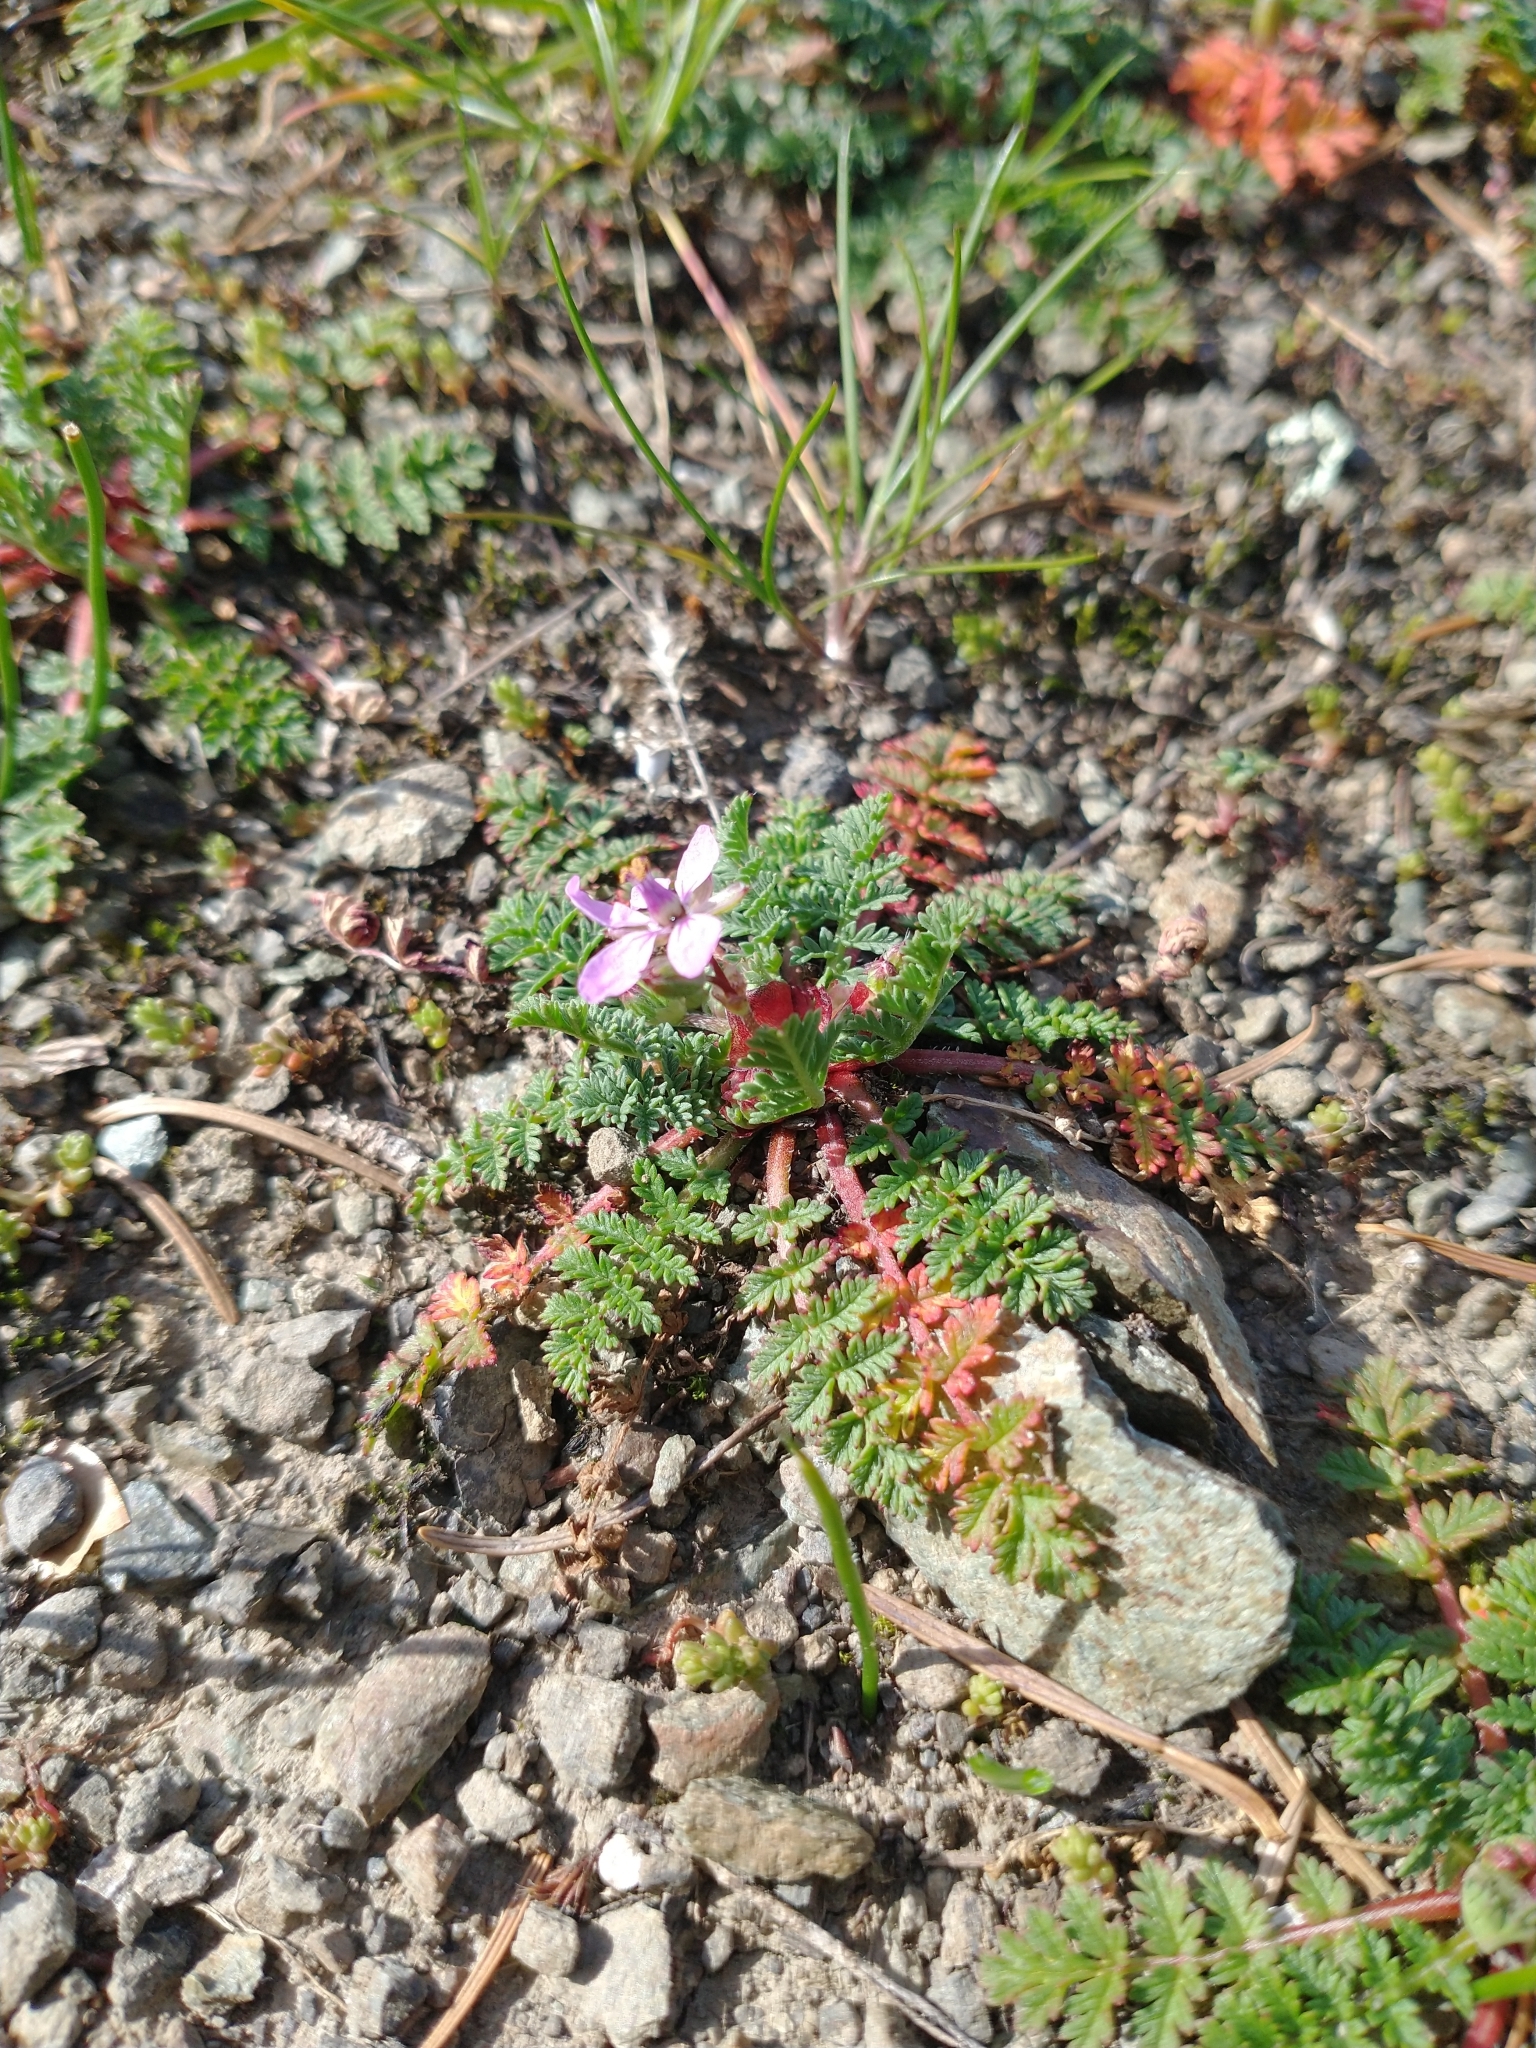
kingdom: Plantae
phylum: Tracheophyta
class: Magnoliopsida
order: Geraniales
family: Geraniaceae
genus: Erodium
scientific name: Erodium cicutarium
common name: Common stork's-bill
